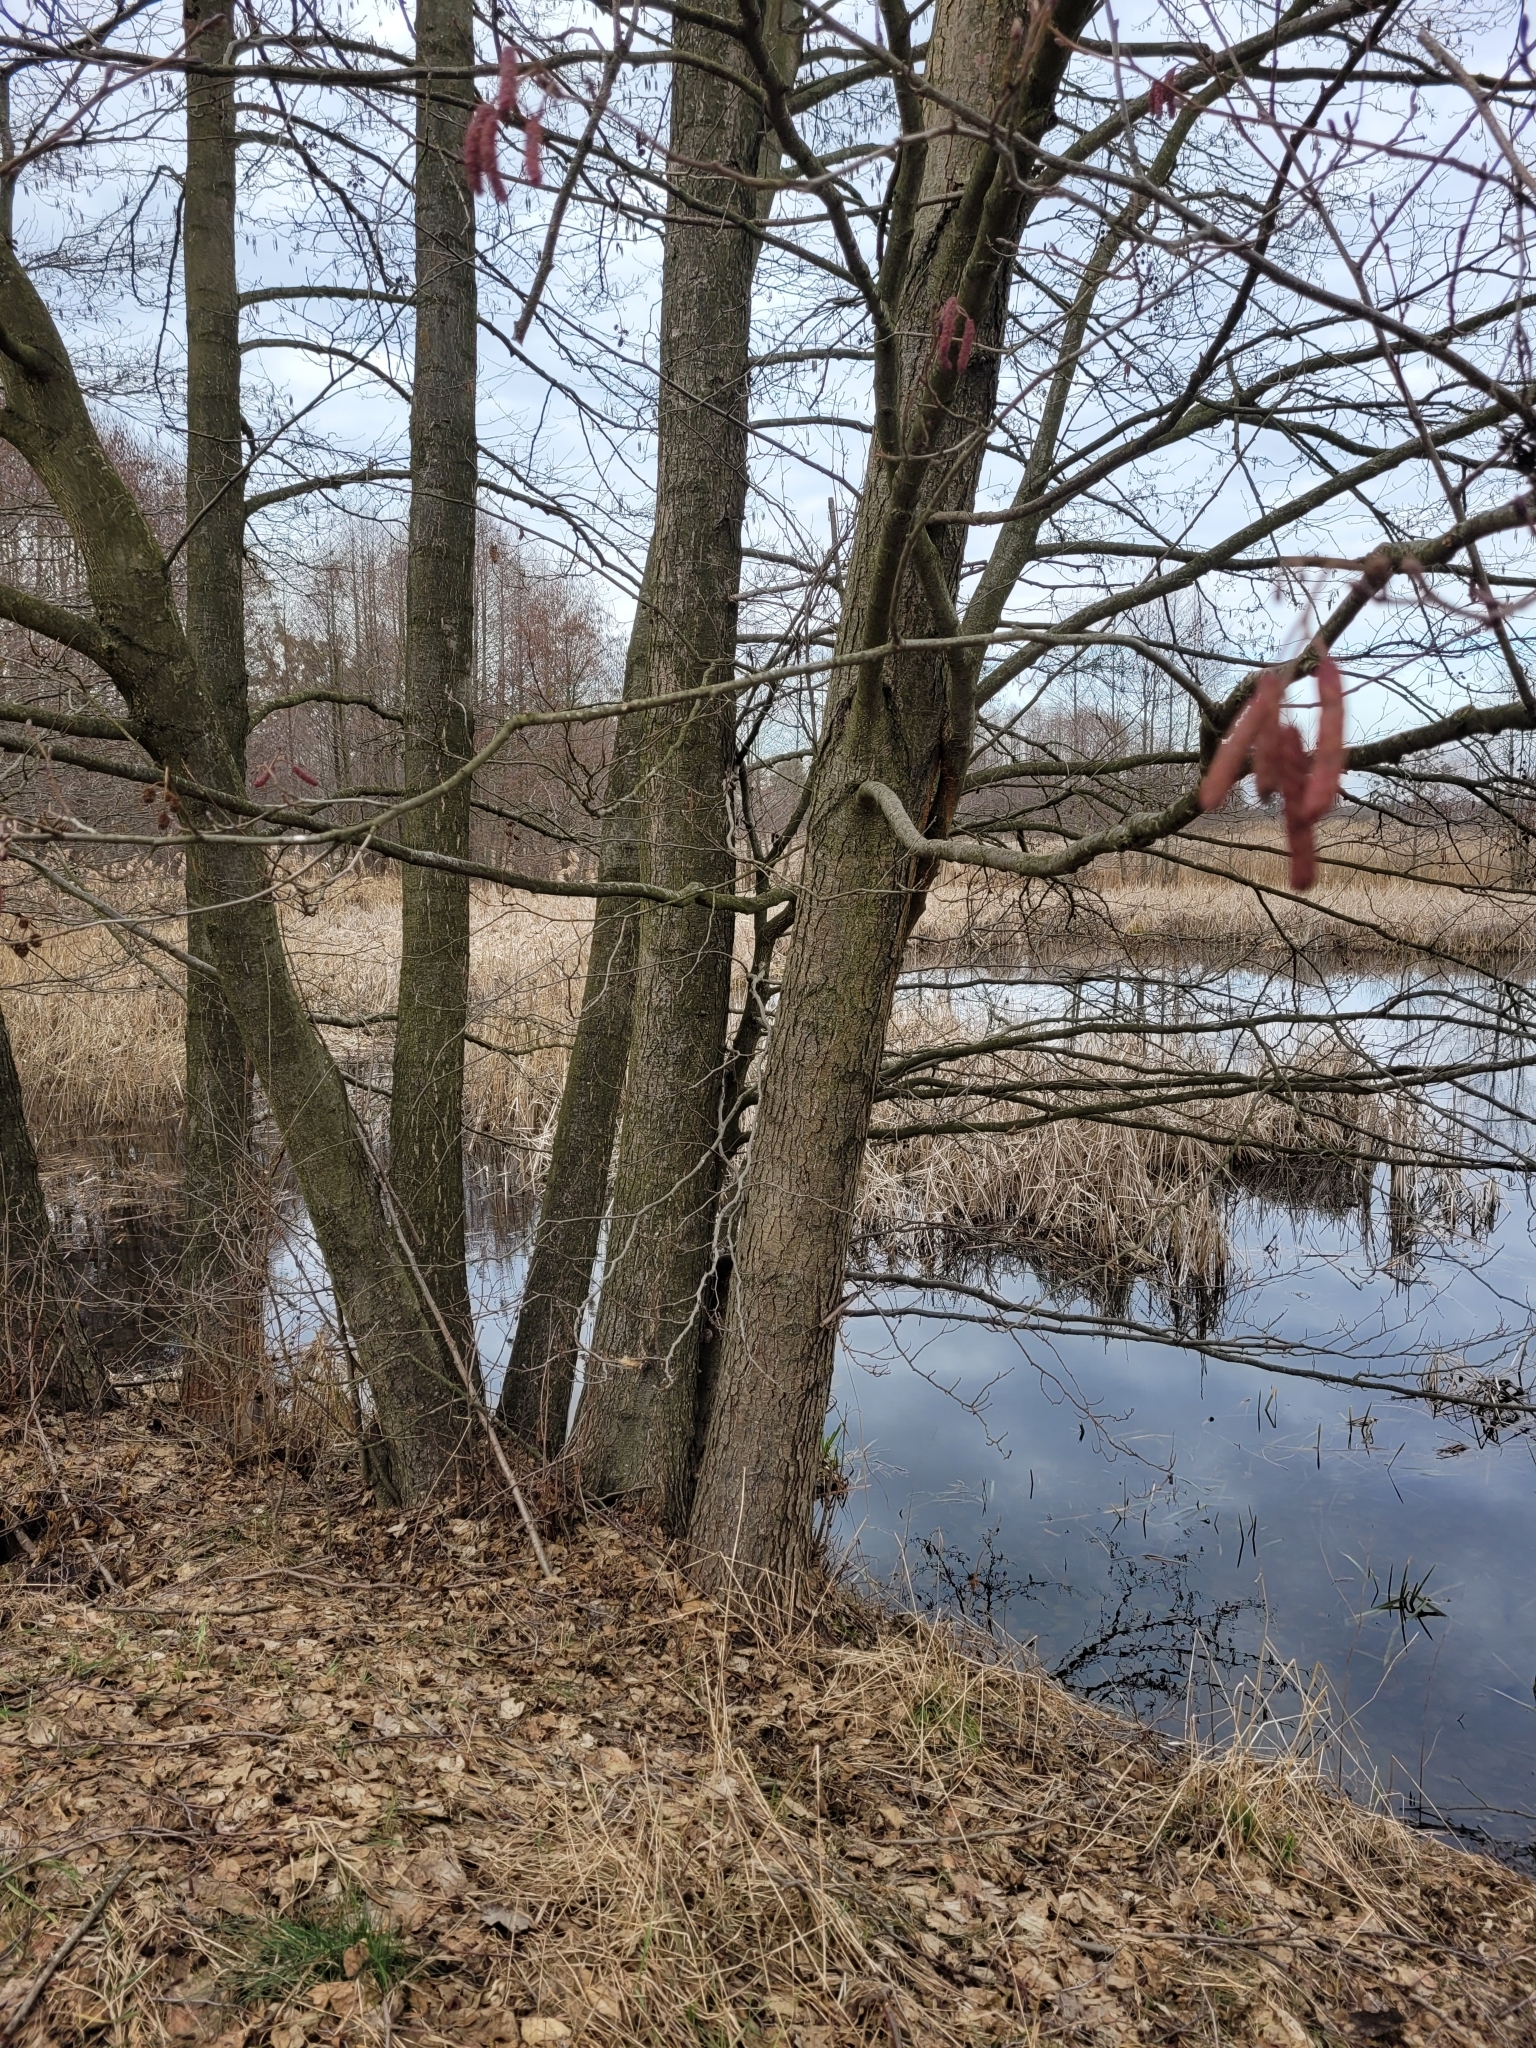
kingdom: Plantae
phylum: Tracheophyta
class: Magnoliopsida
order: Fagales
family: Betulaceae
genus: Alnus
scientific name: Alnus glutinosa
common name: Black alder
